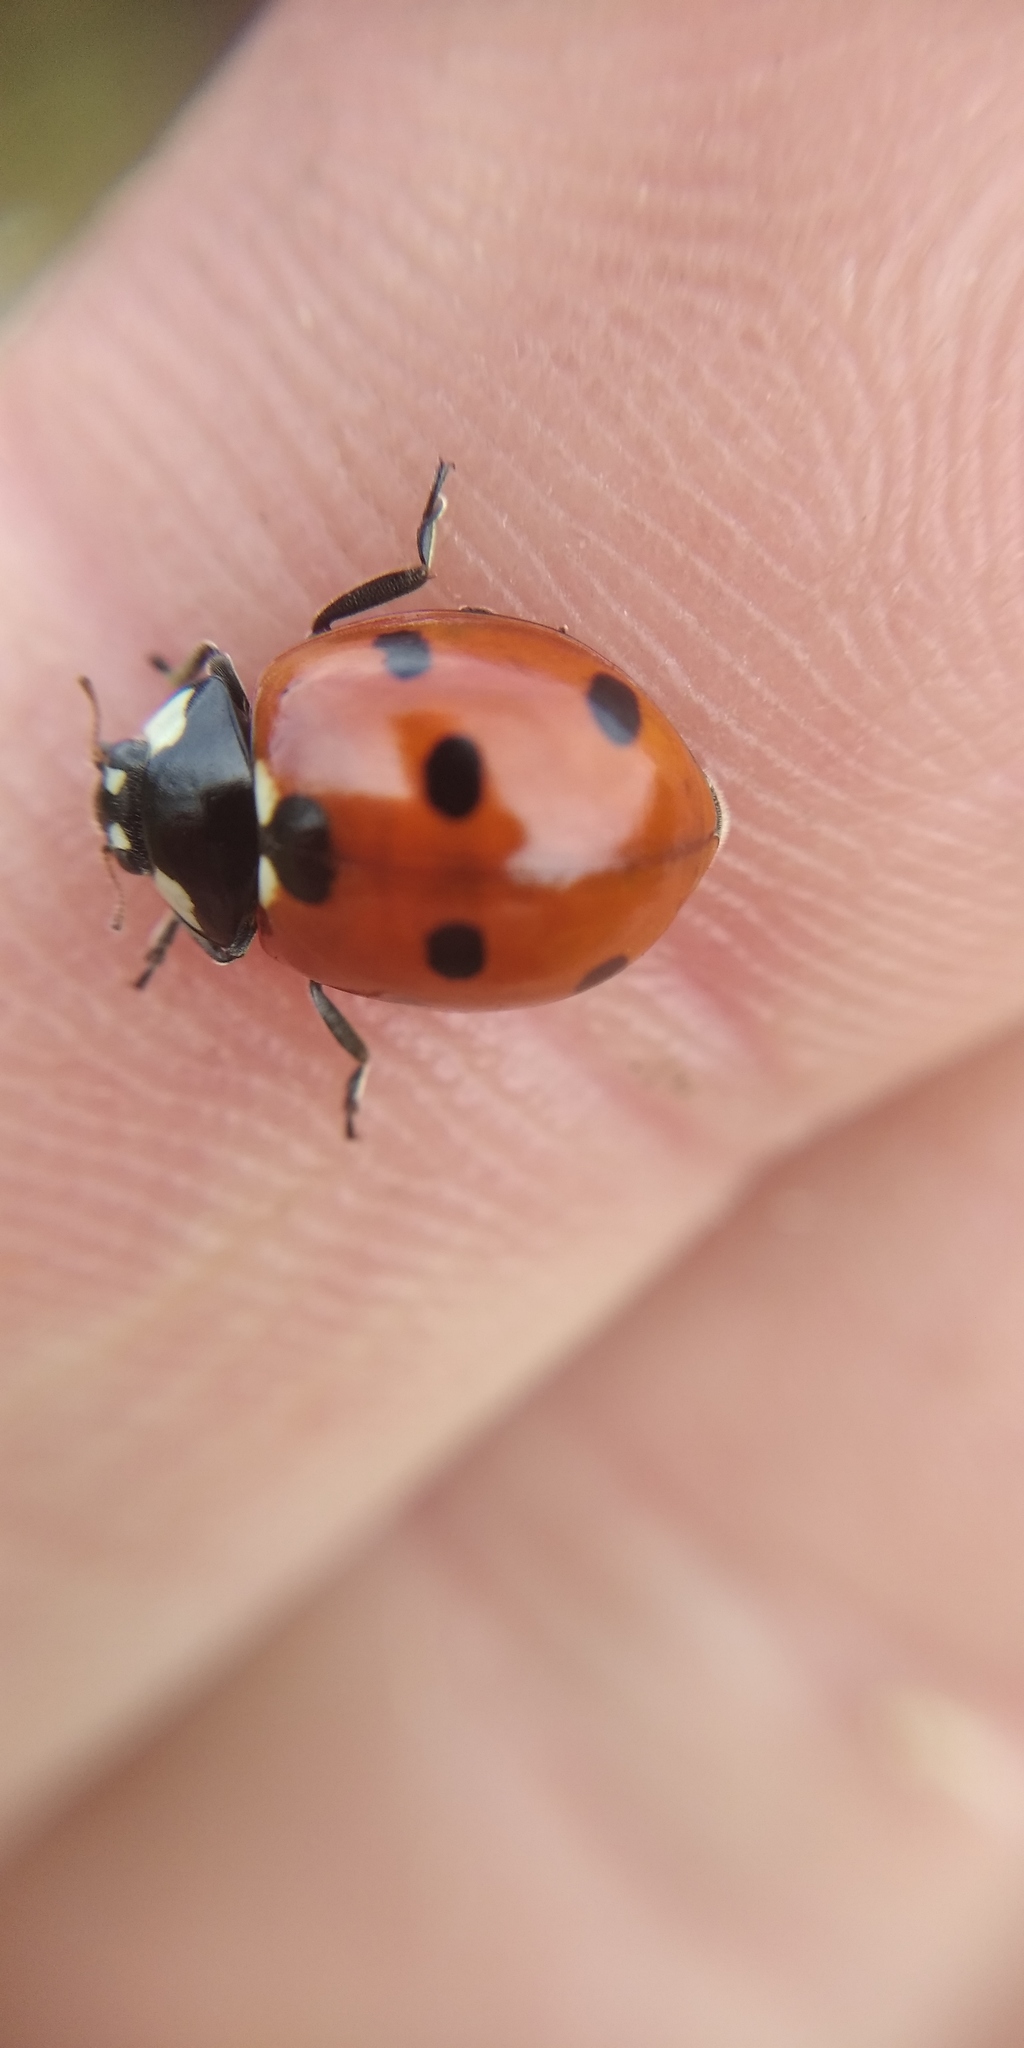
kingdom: Animalia
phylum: Arthropoda
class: Insecta
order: Coleoptera
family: Coccinellidae
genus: Coccinella
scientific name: Coccinella septempunctata
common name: Sevenspotted lady beetle
